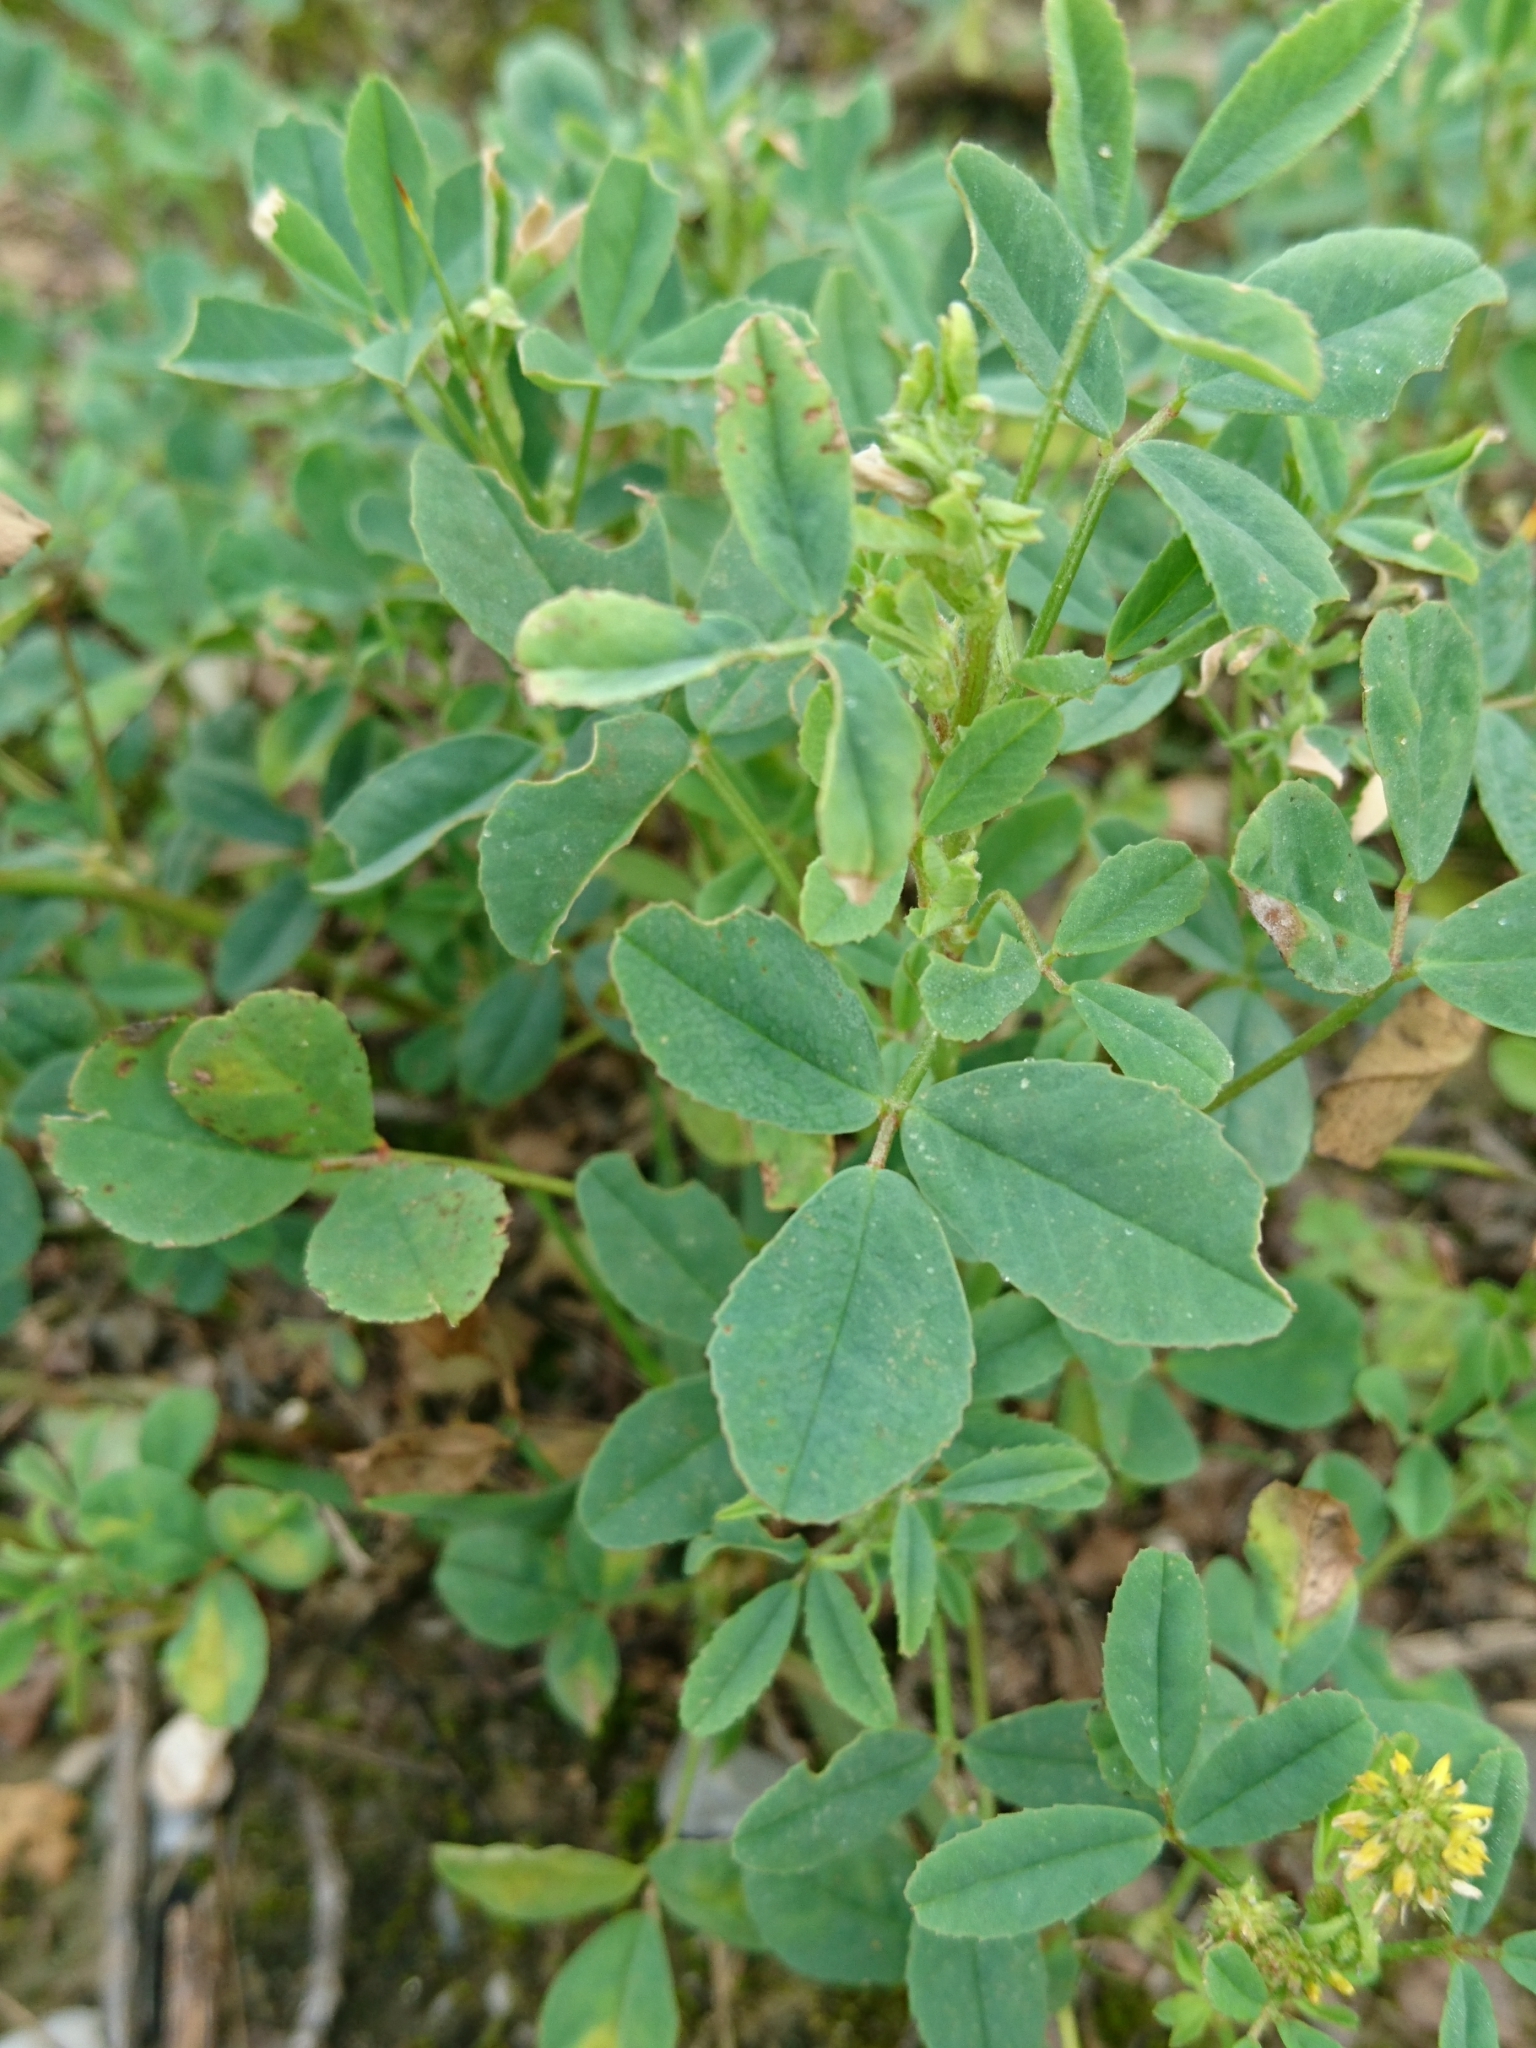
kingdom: Plantae
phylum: Tracheophyta
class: Magnoliopsida
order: Fabales
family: Fabaceae
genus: Melilotus
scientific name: Melilotus indicus
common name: Small melilot
